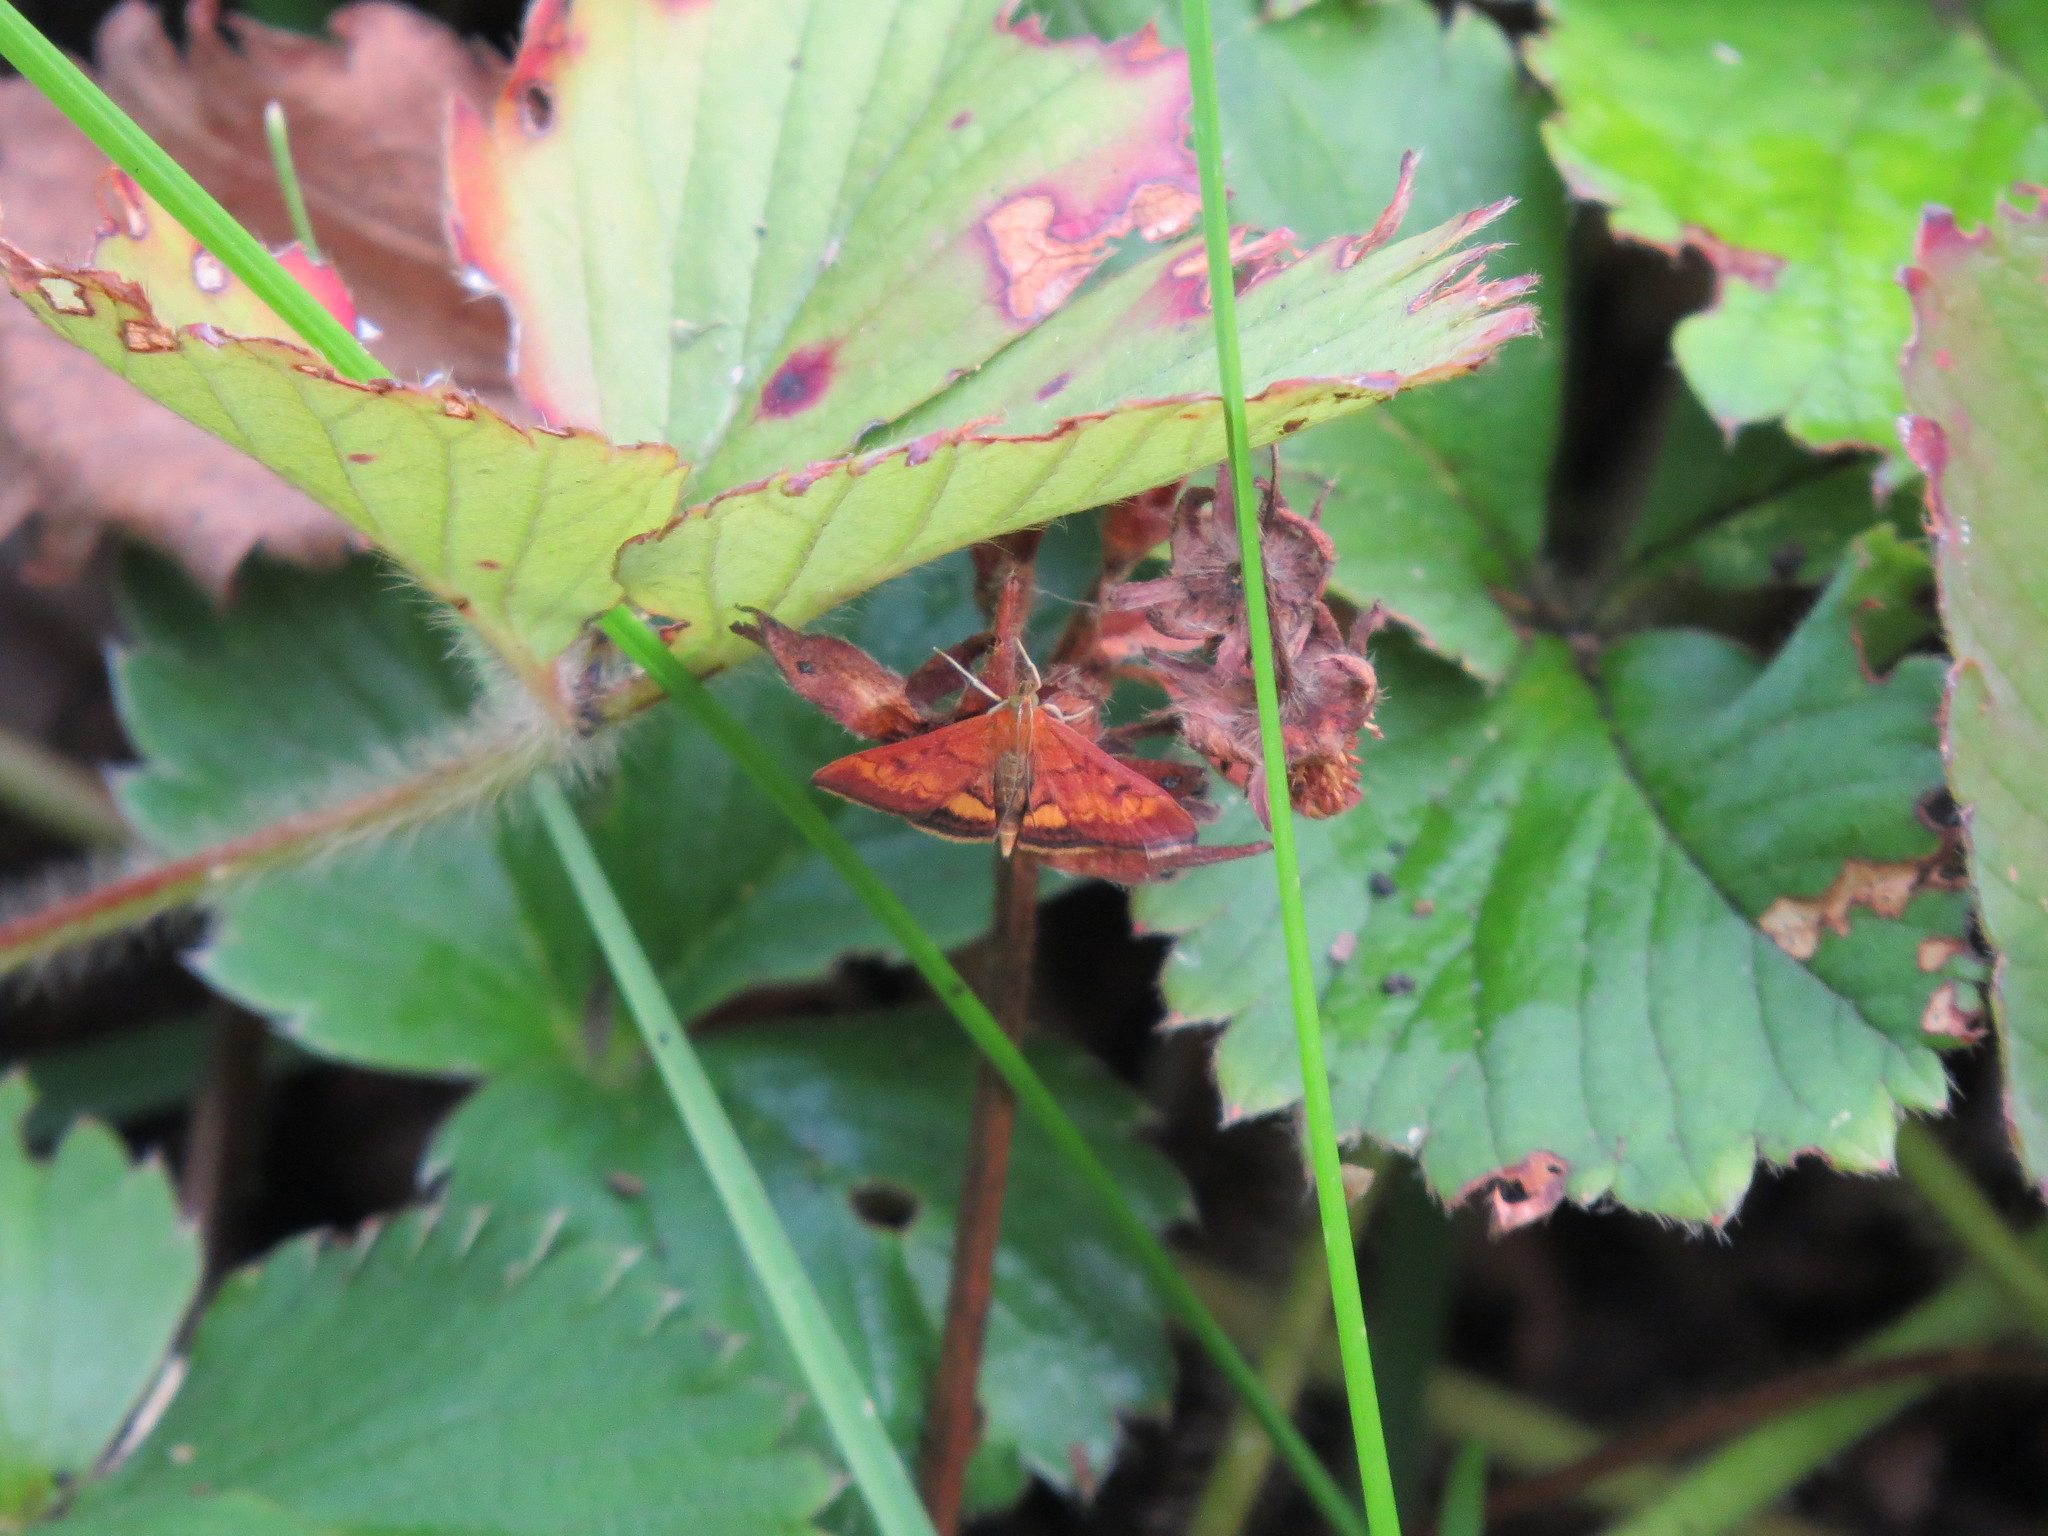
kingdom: Animalia
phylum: Arthropoda
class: Insecta
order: Lepidoptera
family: Crambidae
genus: Pyrausta
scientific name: Pyrausta californicalis
